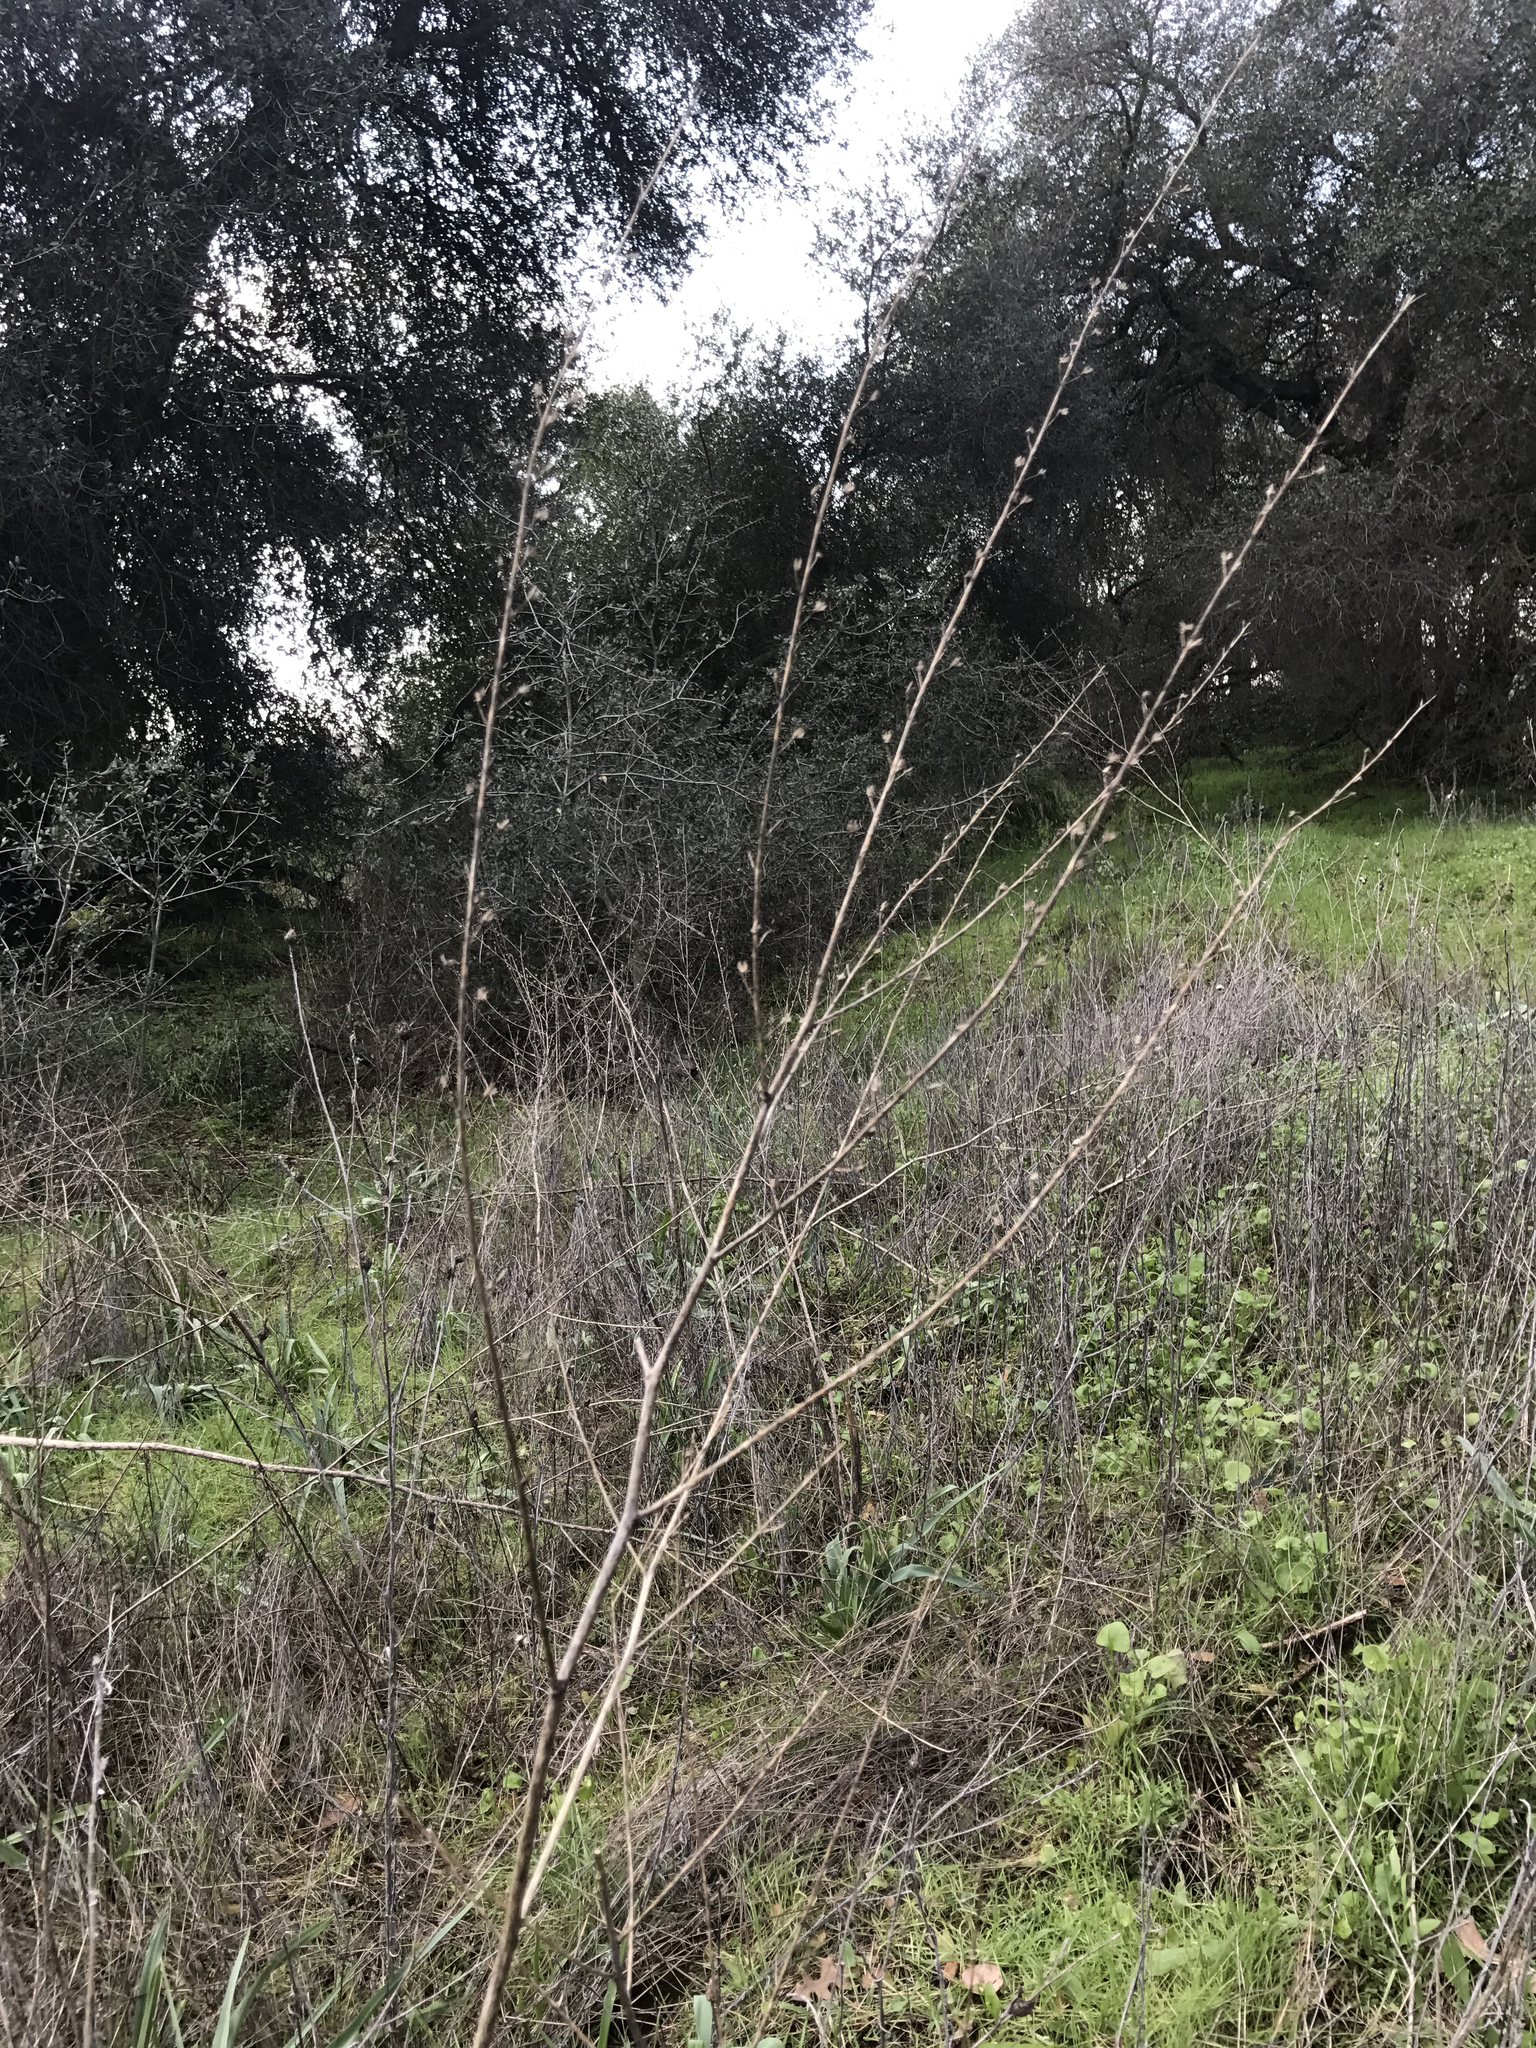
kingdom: Plantae
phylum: Tracheophyta
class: Liliopsida
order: Asparagales
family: Asparagaceae
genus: Chlorogalum
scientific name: Chlorogalum pomeridianum
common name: Amole
